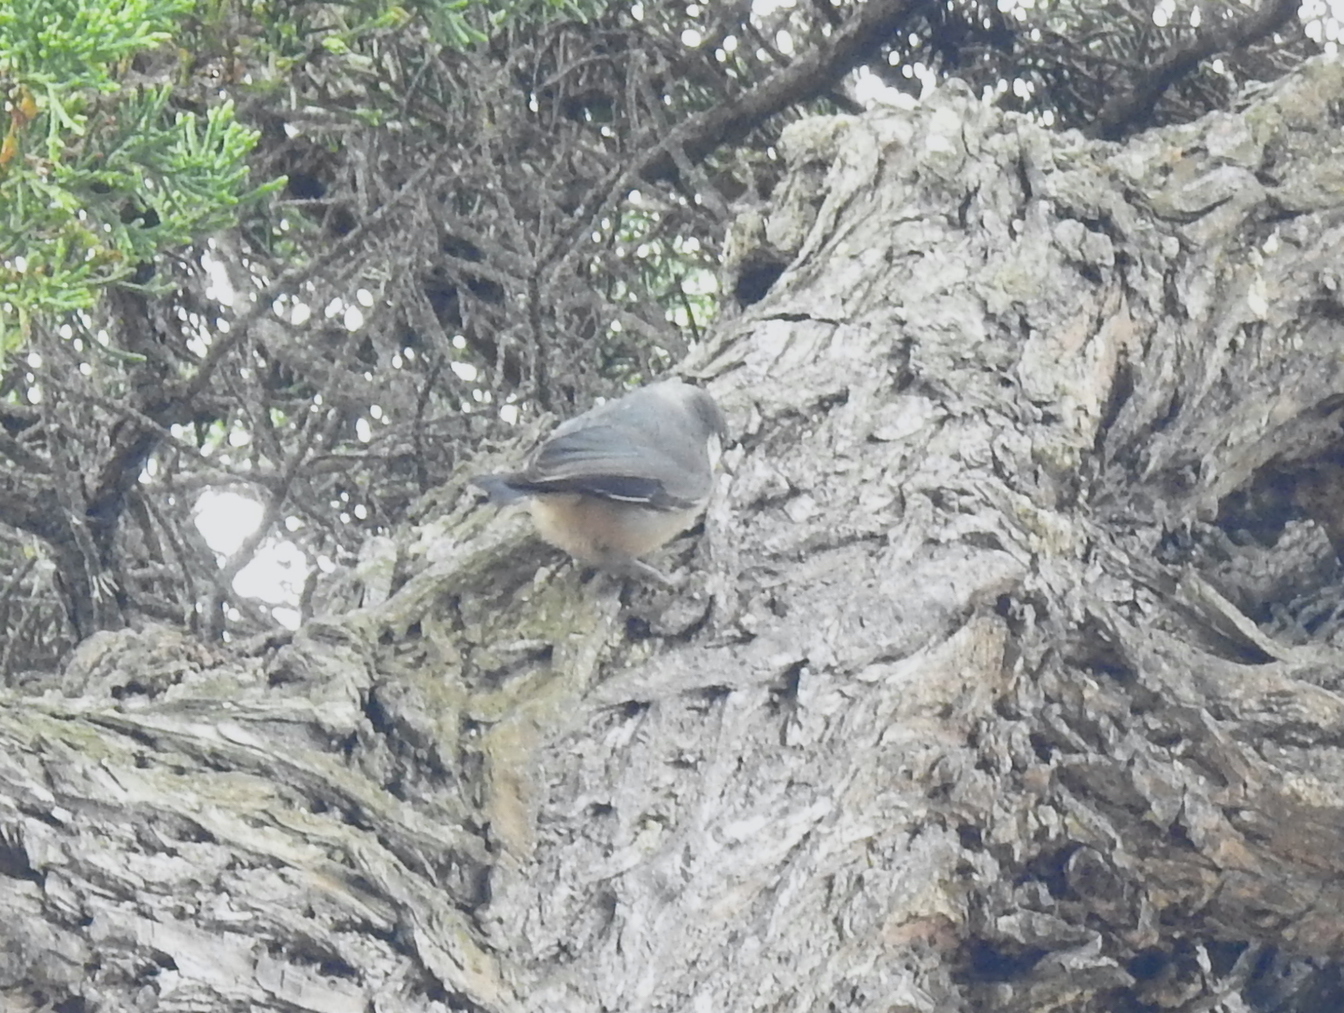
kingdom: Animalia
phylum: Chordata
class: Aves
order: Passeriformes
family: Sittidae
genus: Sitta
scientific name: Sitta pygmaea
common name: Pygmy nuthatch
